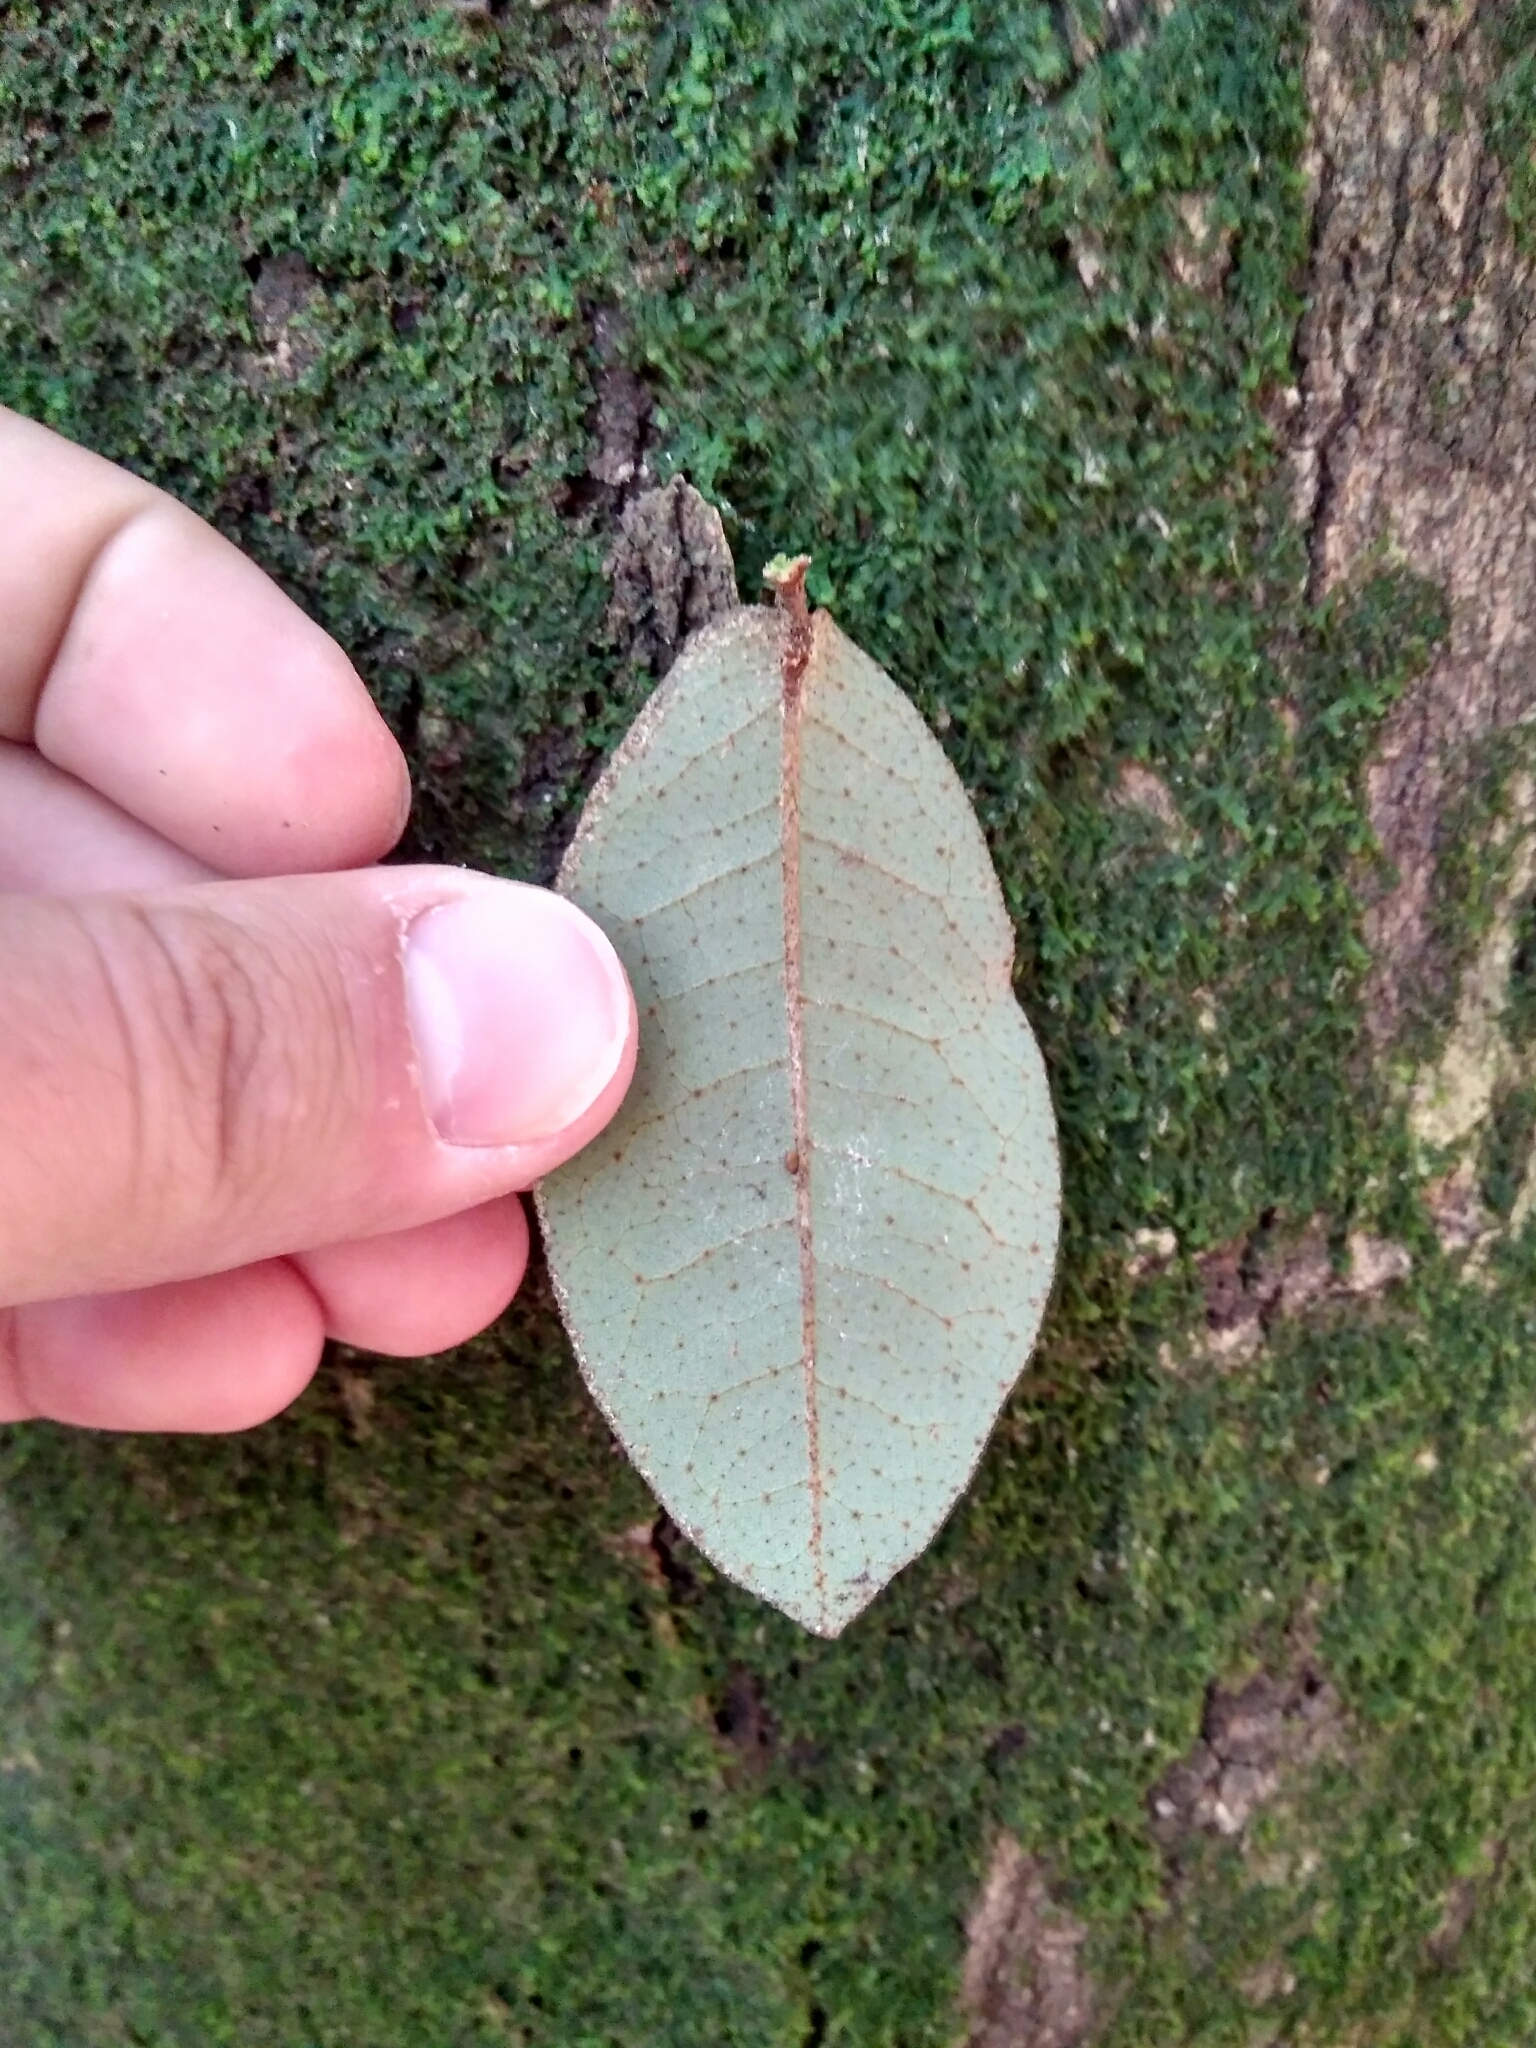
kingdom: Plantae
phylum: Tracheophyta
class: Magnoliopsida
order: Berberidopsidales
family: Aextoxicaceae
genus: Aextoxicon
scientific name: Aextoxicon punctatum
